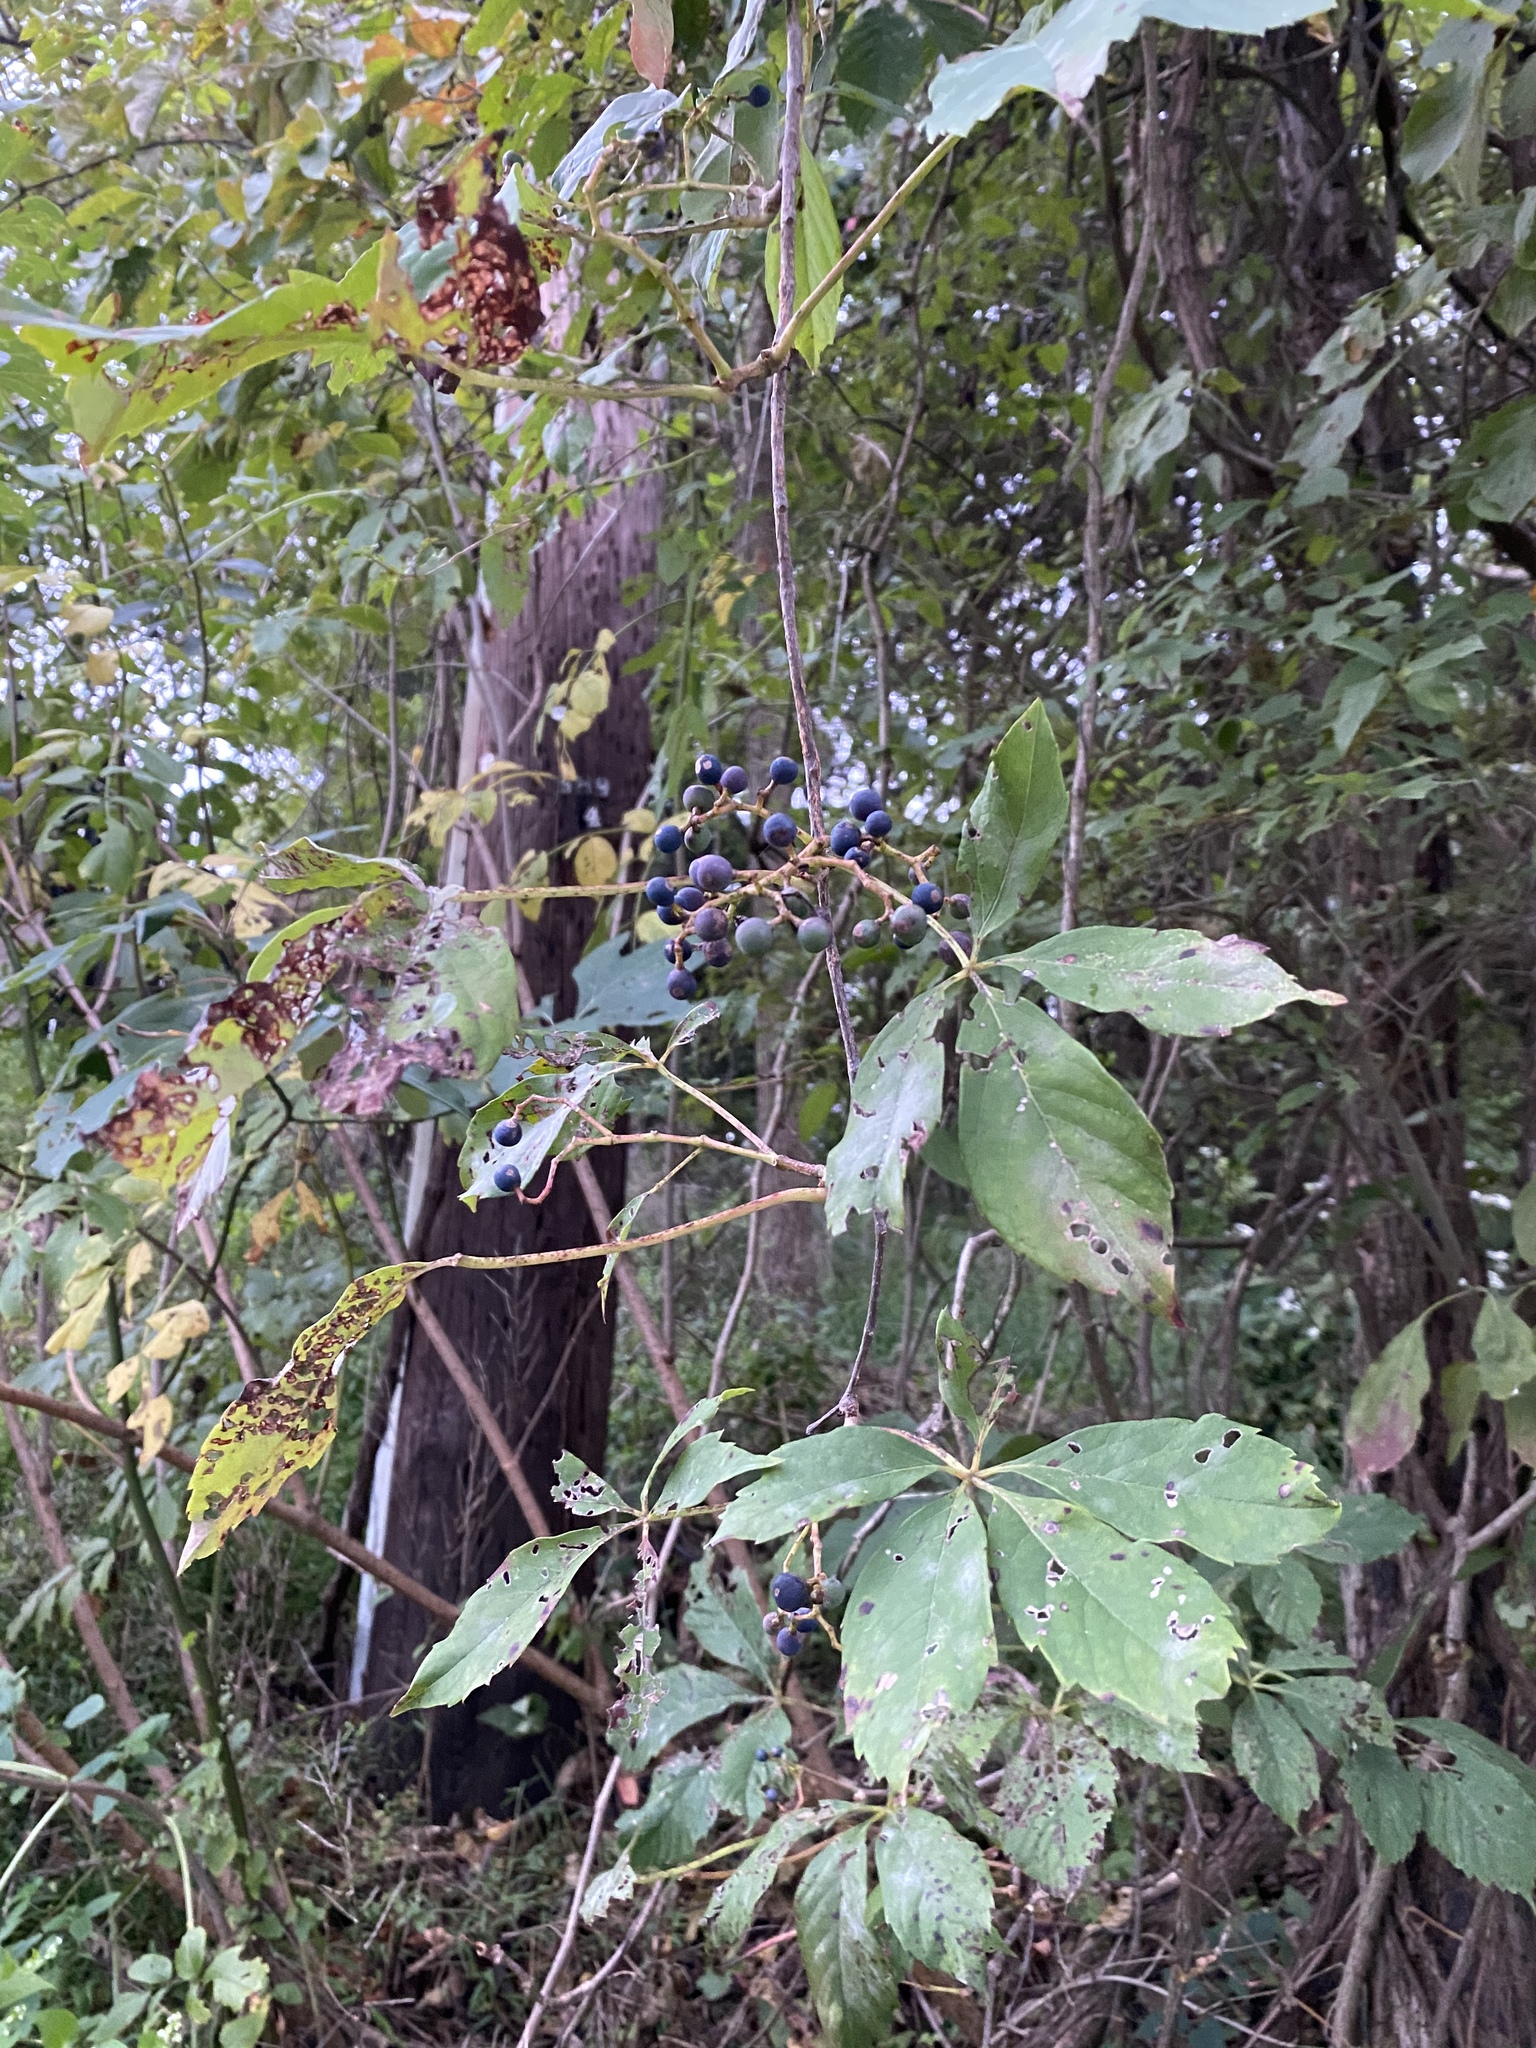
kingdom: Plantae
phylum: Tracheophyta
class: Magnoliopsida
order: Vitales
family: Vitaceae
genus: Parthenocissus
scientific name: Parthenocissus quinquefolia
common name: Virginia-creeper
